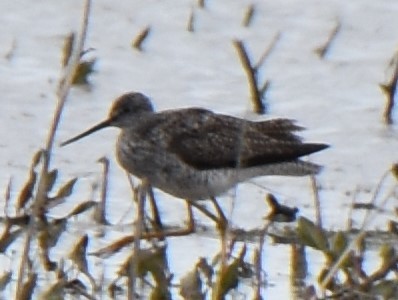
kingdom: Animalia
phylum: Chordata
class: Aves
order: Charadriiformes
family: Scolopacidae
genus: Tringa
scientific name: Tringa melanoleuca
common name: Greater yellowlegs
